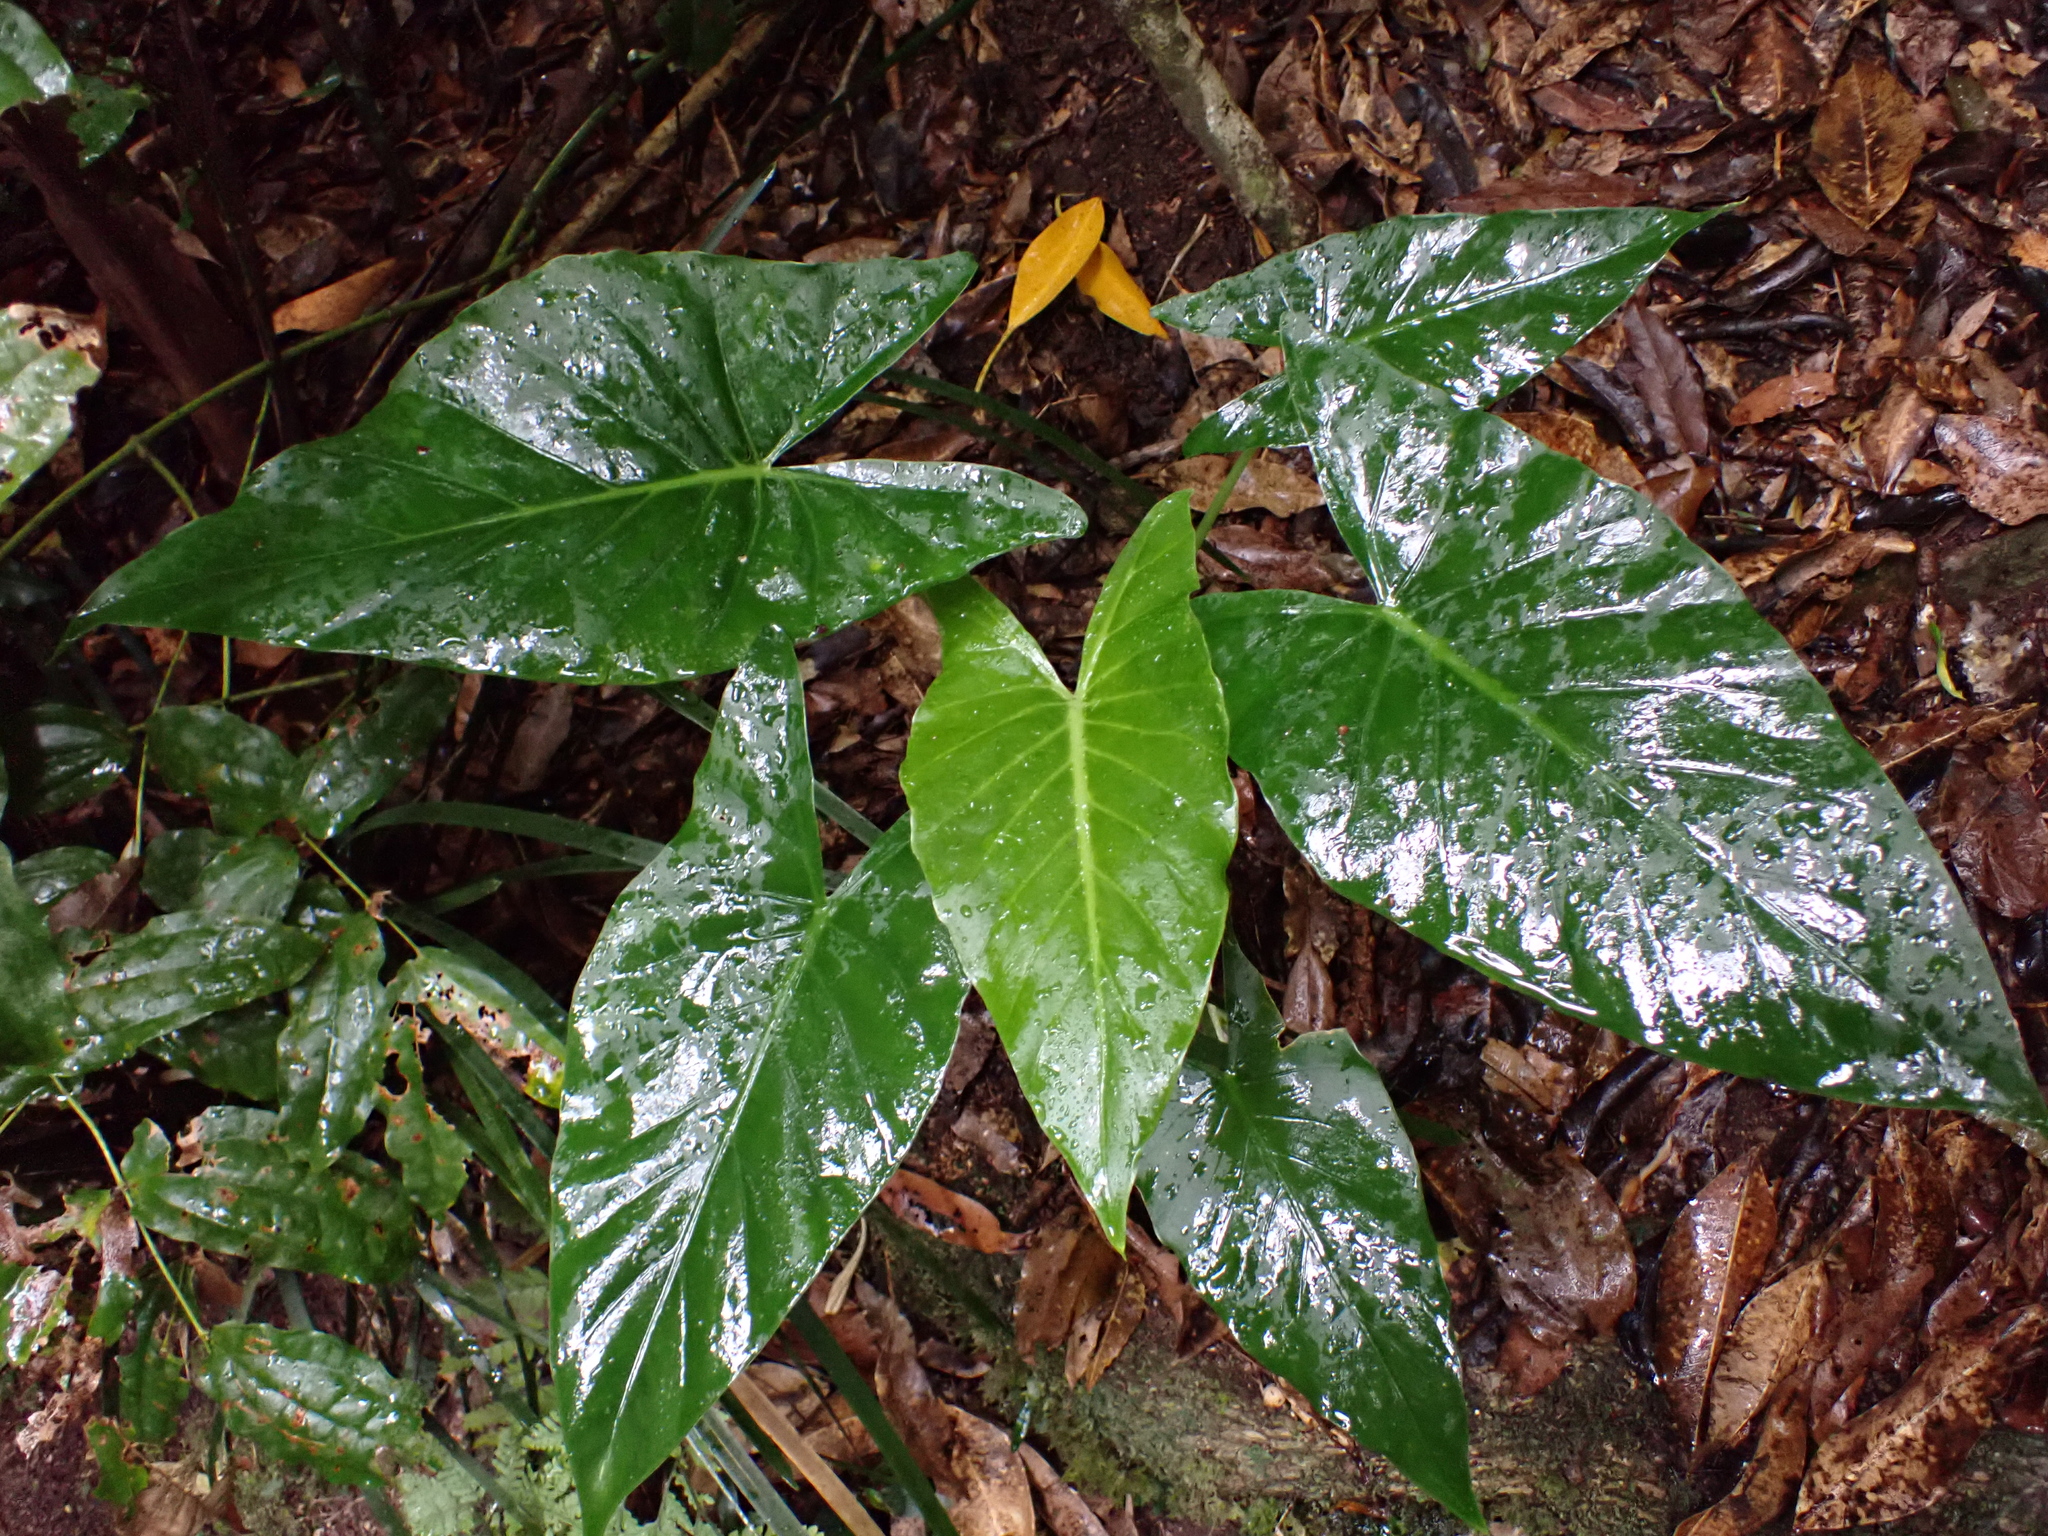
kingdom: Plantae
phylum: Tracheophyta
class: Liliopsida
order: Alismatales
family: Araceae
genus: Alocasia
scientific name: Alocasia brisbanensis
